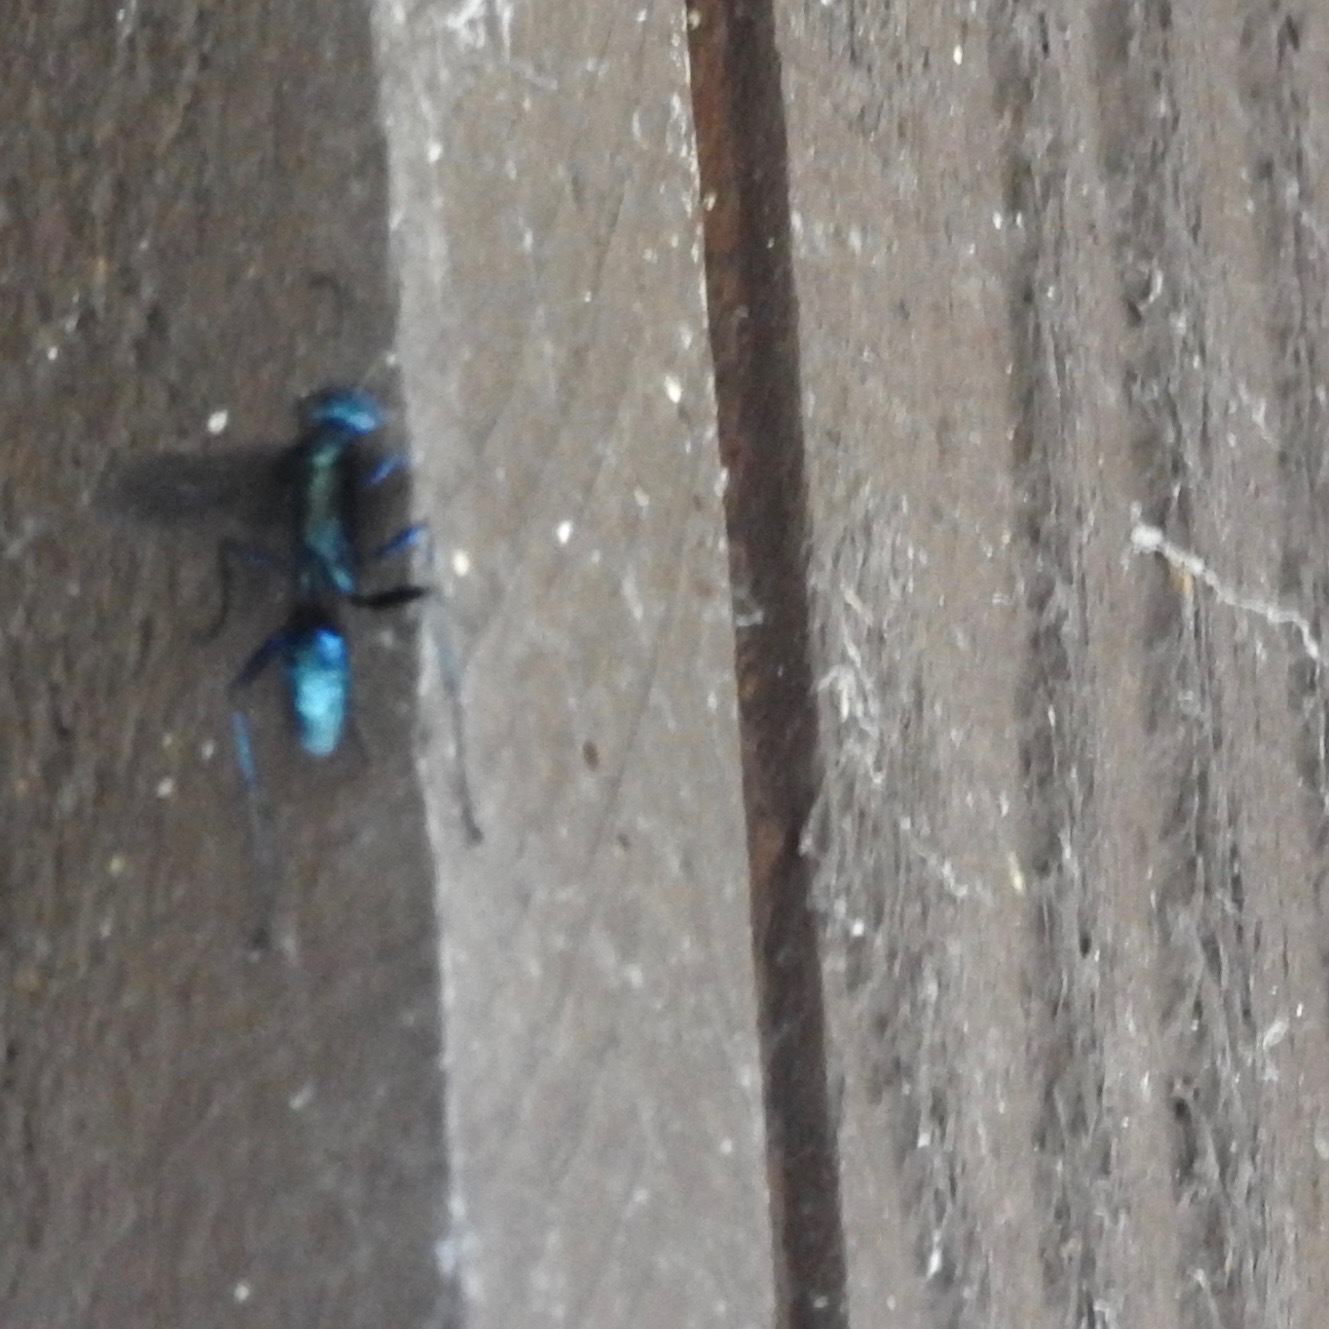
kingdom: Animalia
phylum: Arthropoda
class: Insecta
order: Hymenoptera
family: Sphecidae
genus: Chalybion
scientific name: Chalybion californicum
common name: Mud dauber
